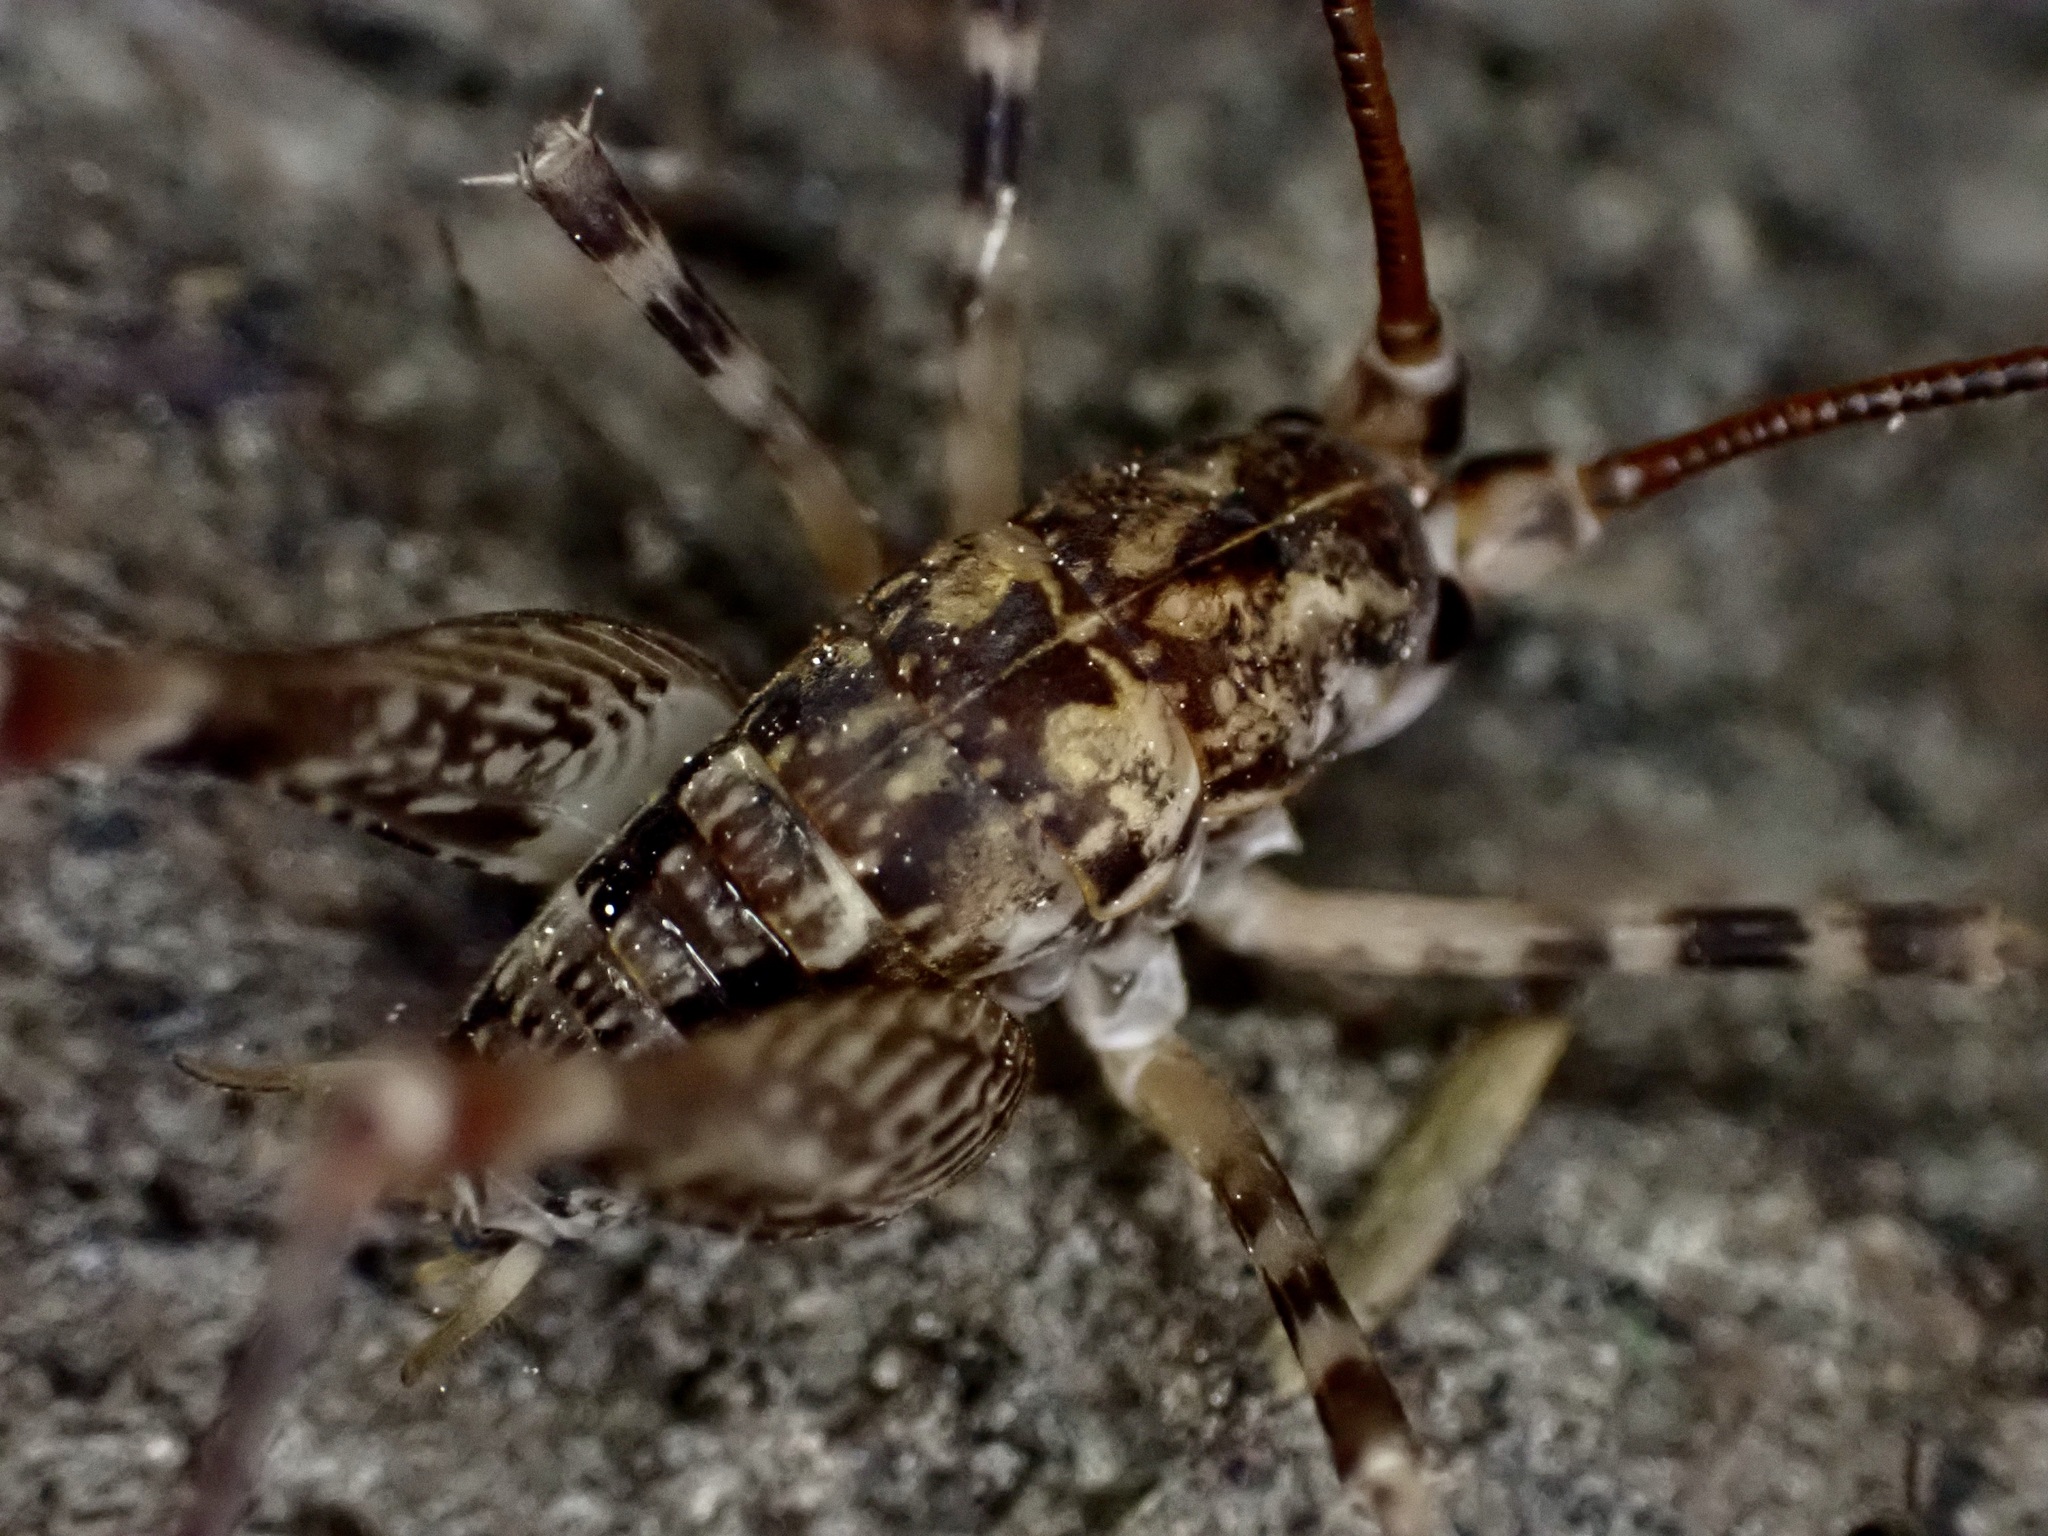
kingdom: Animalia
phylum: Arthropoda
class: Insecta
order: Orthoptera
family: Rhaphidophoridae
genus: Pleioplectron
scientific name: Pleioplectron simplex
